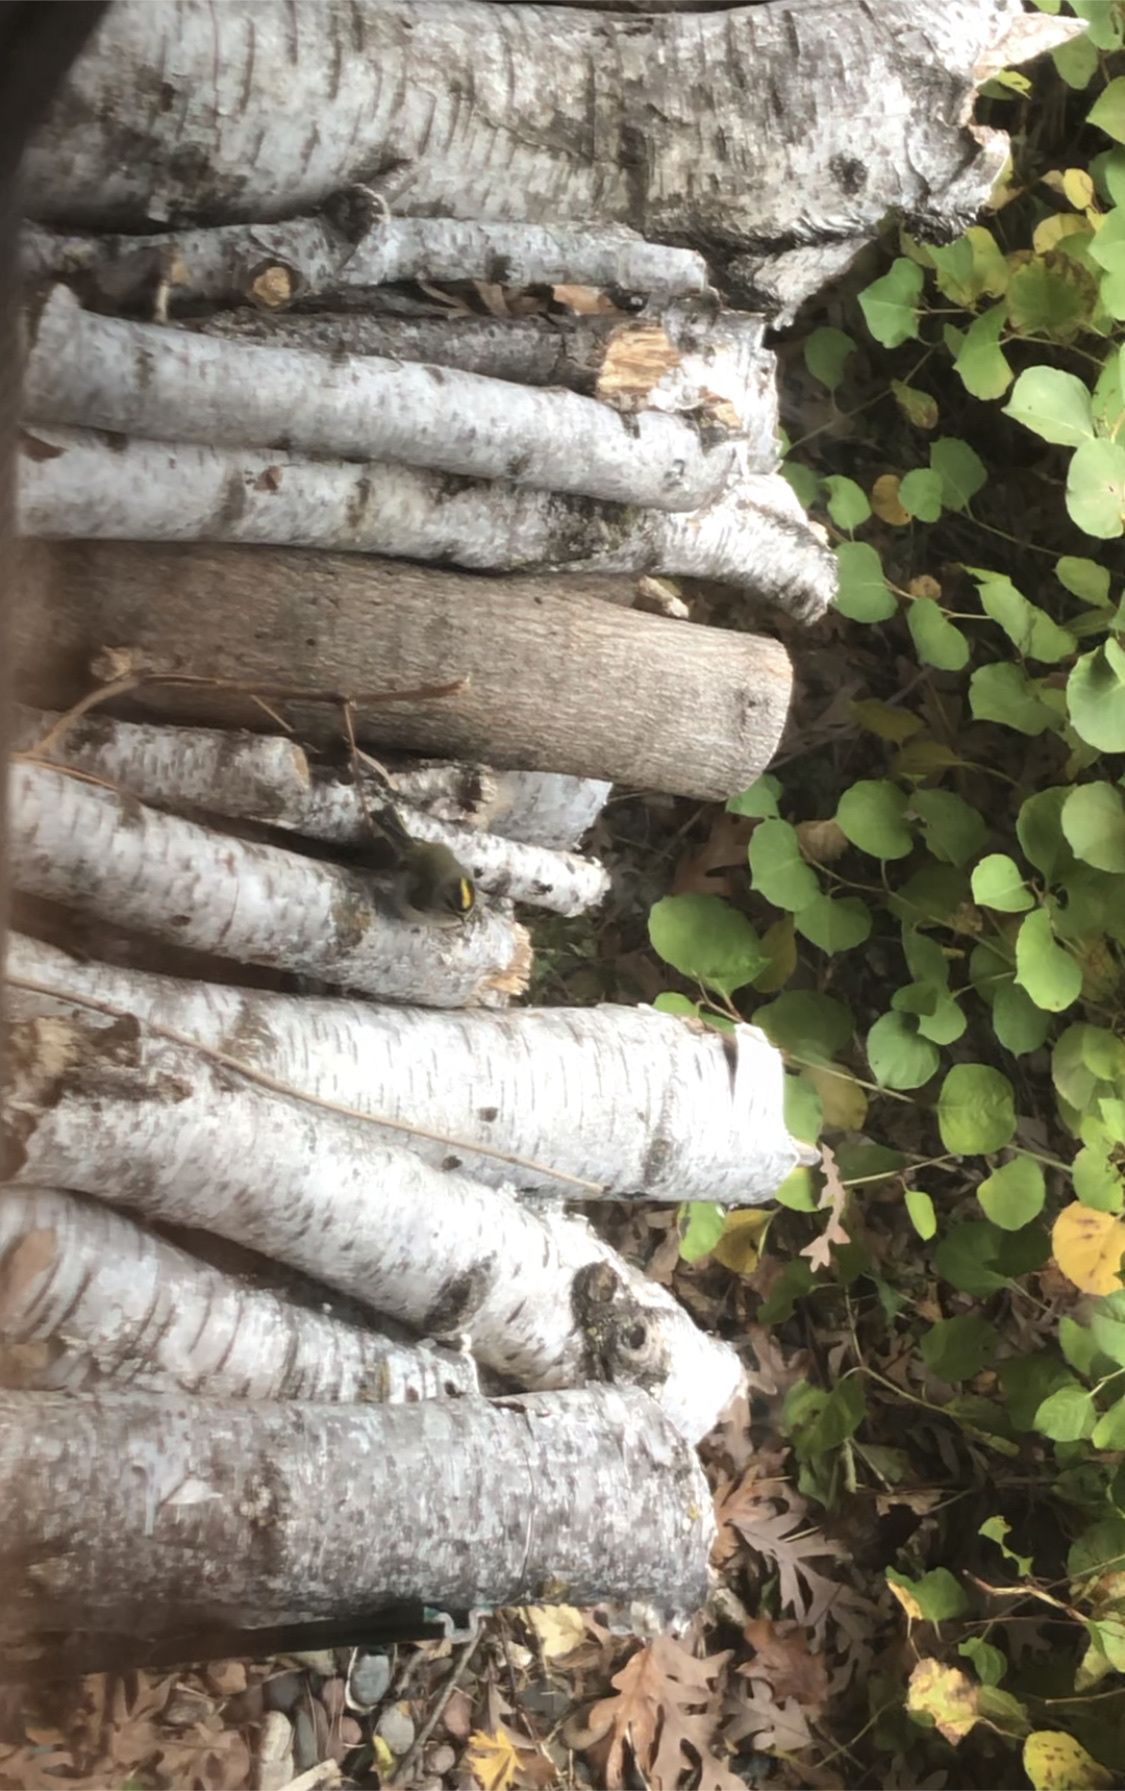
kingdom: Animalia
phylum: Chordata
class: Aves
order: Passeriformes
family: Regulidae
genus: Regulus
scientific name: Regulus satrapa
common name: Golden-crowned kinglet
